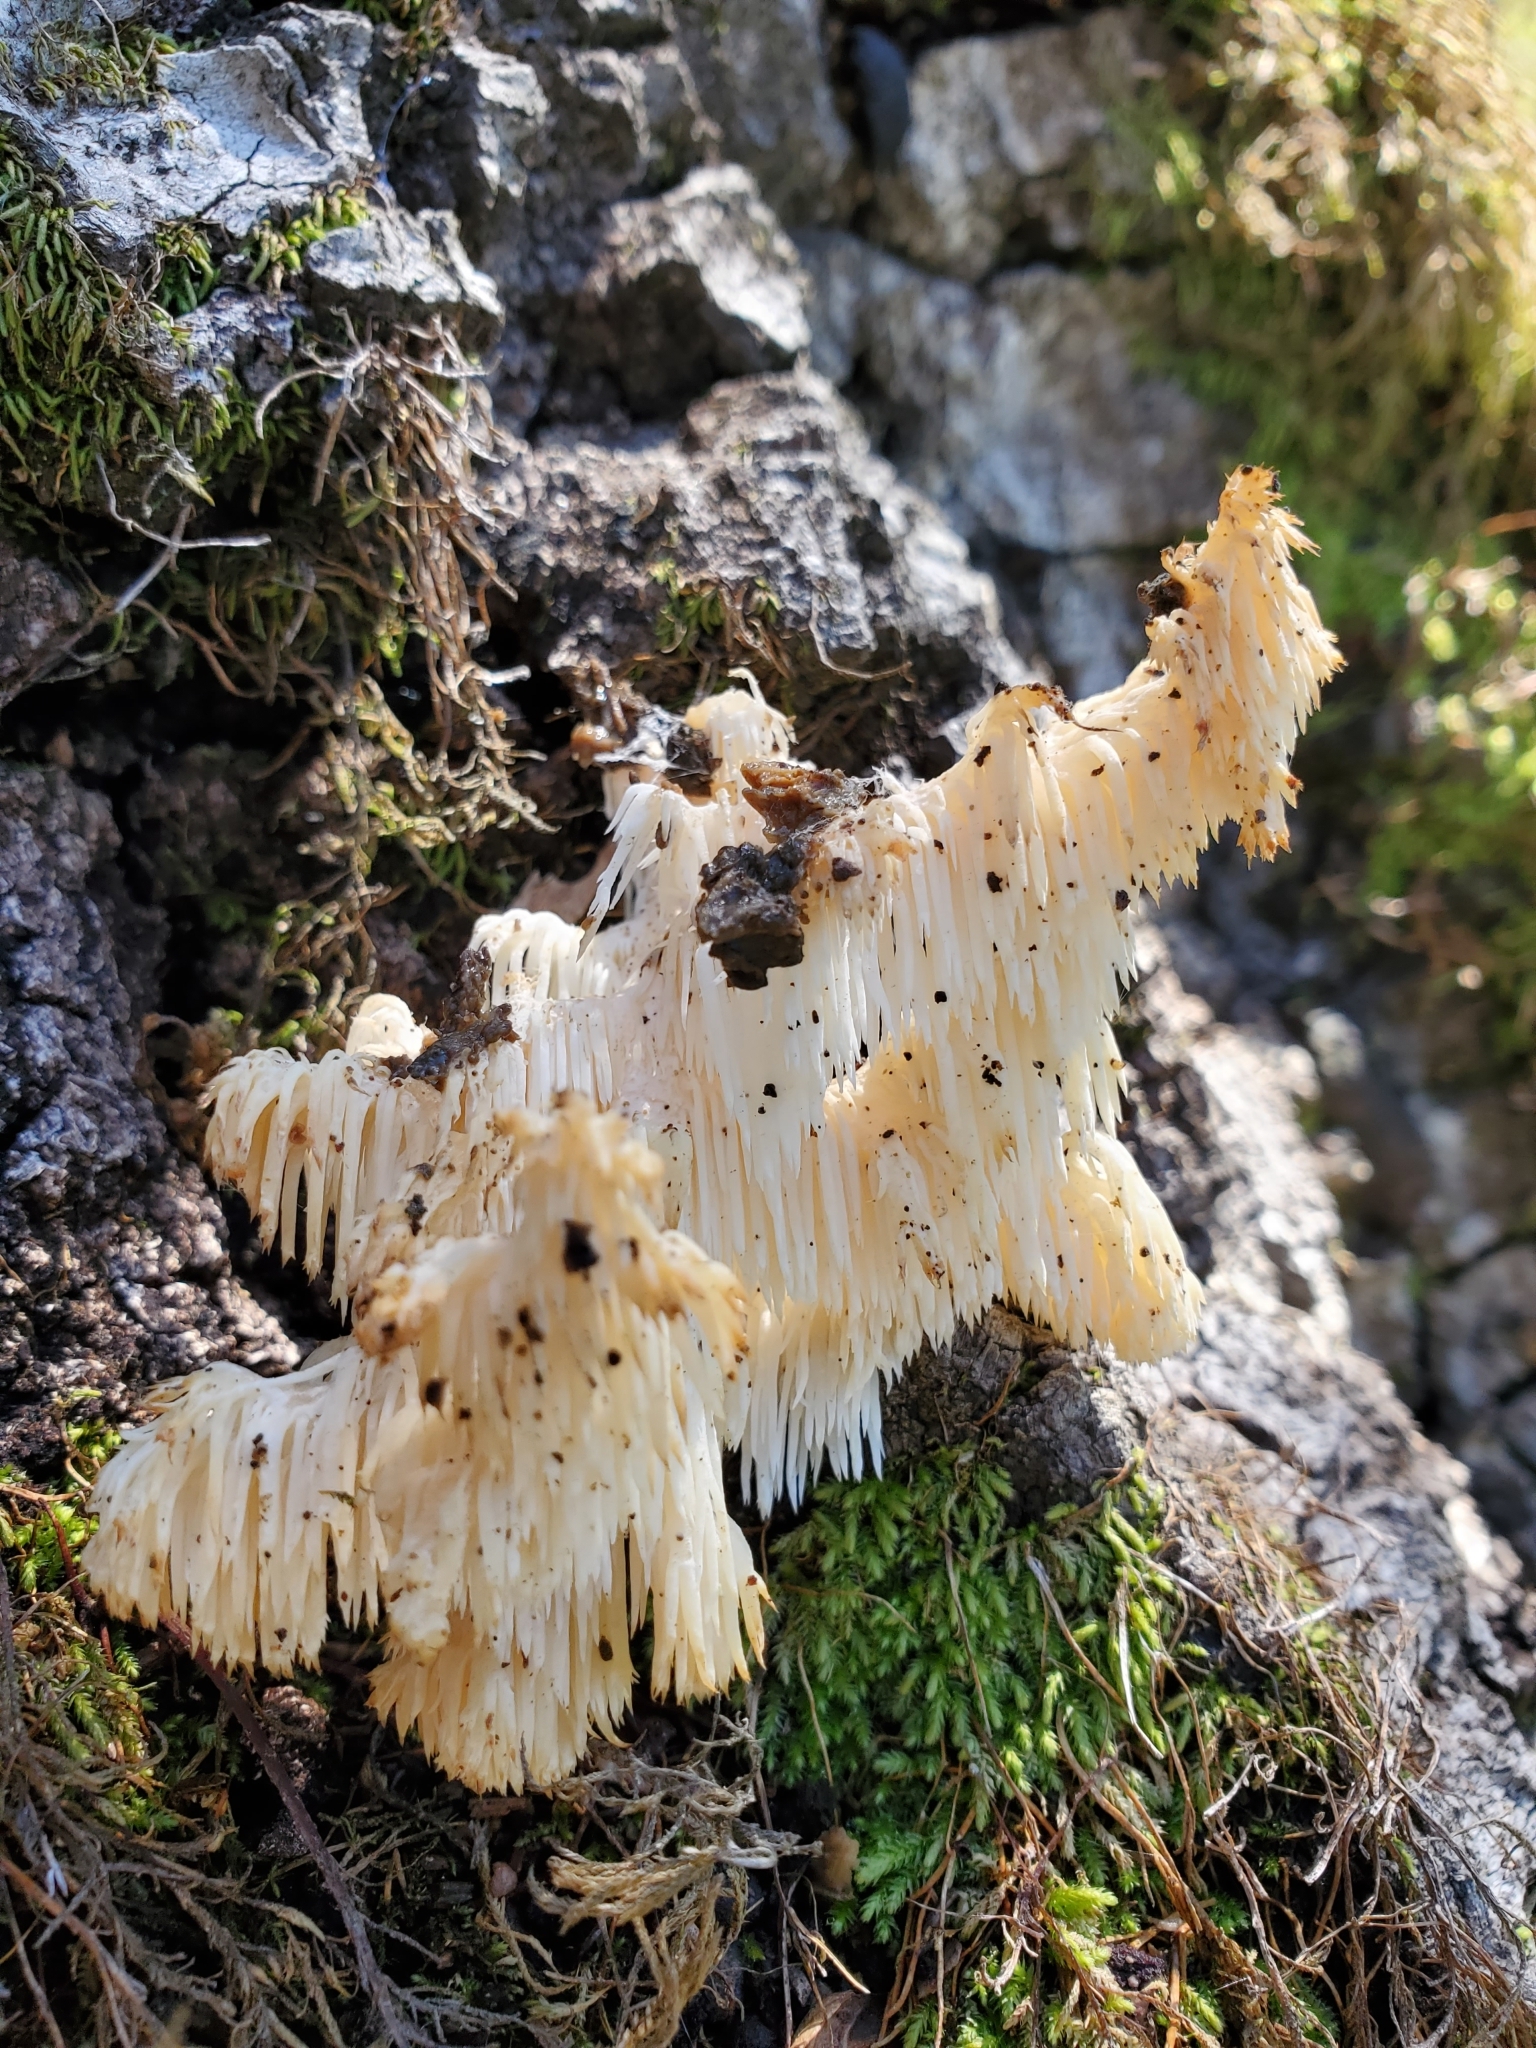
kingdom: Fungi
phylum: Basidiomycota
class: Agaricomycetes
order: Russulales
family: Hericiaceae
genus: Hericium
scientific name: Hericium coralloides
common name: Coral tooth
